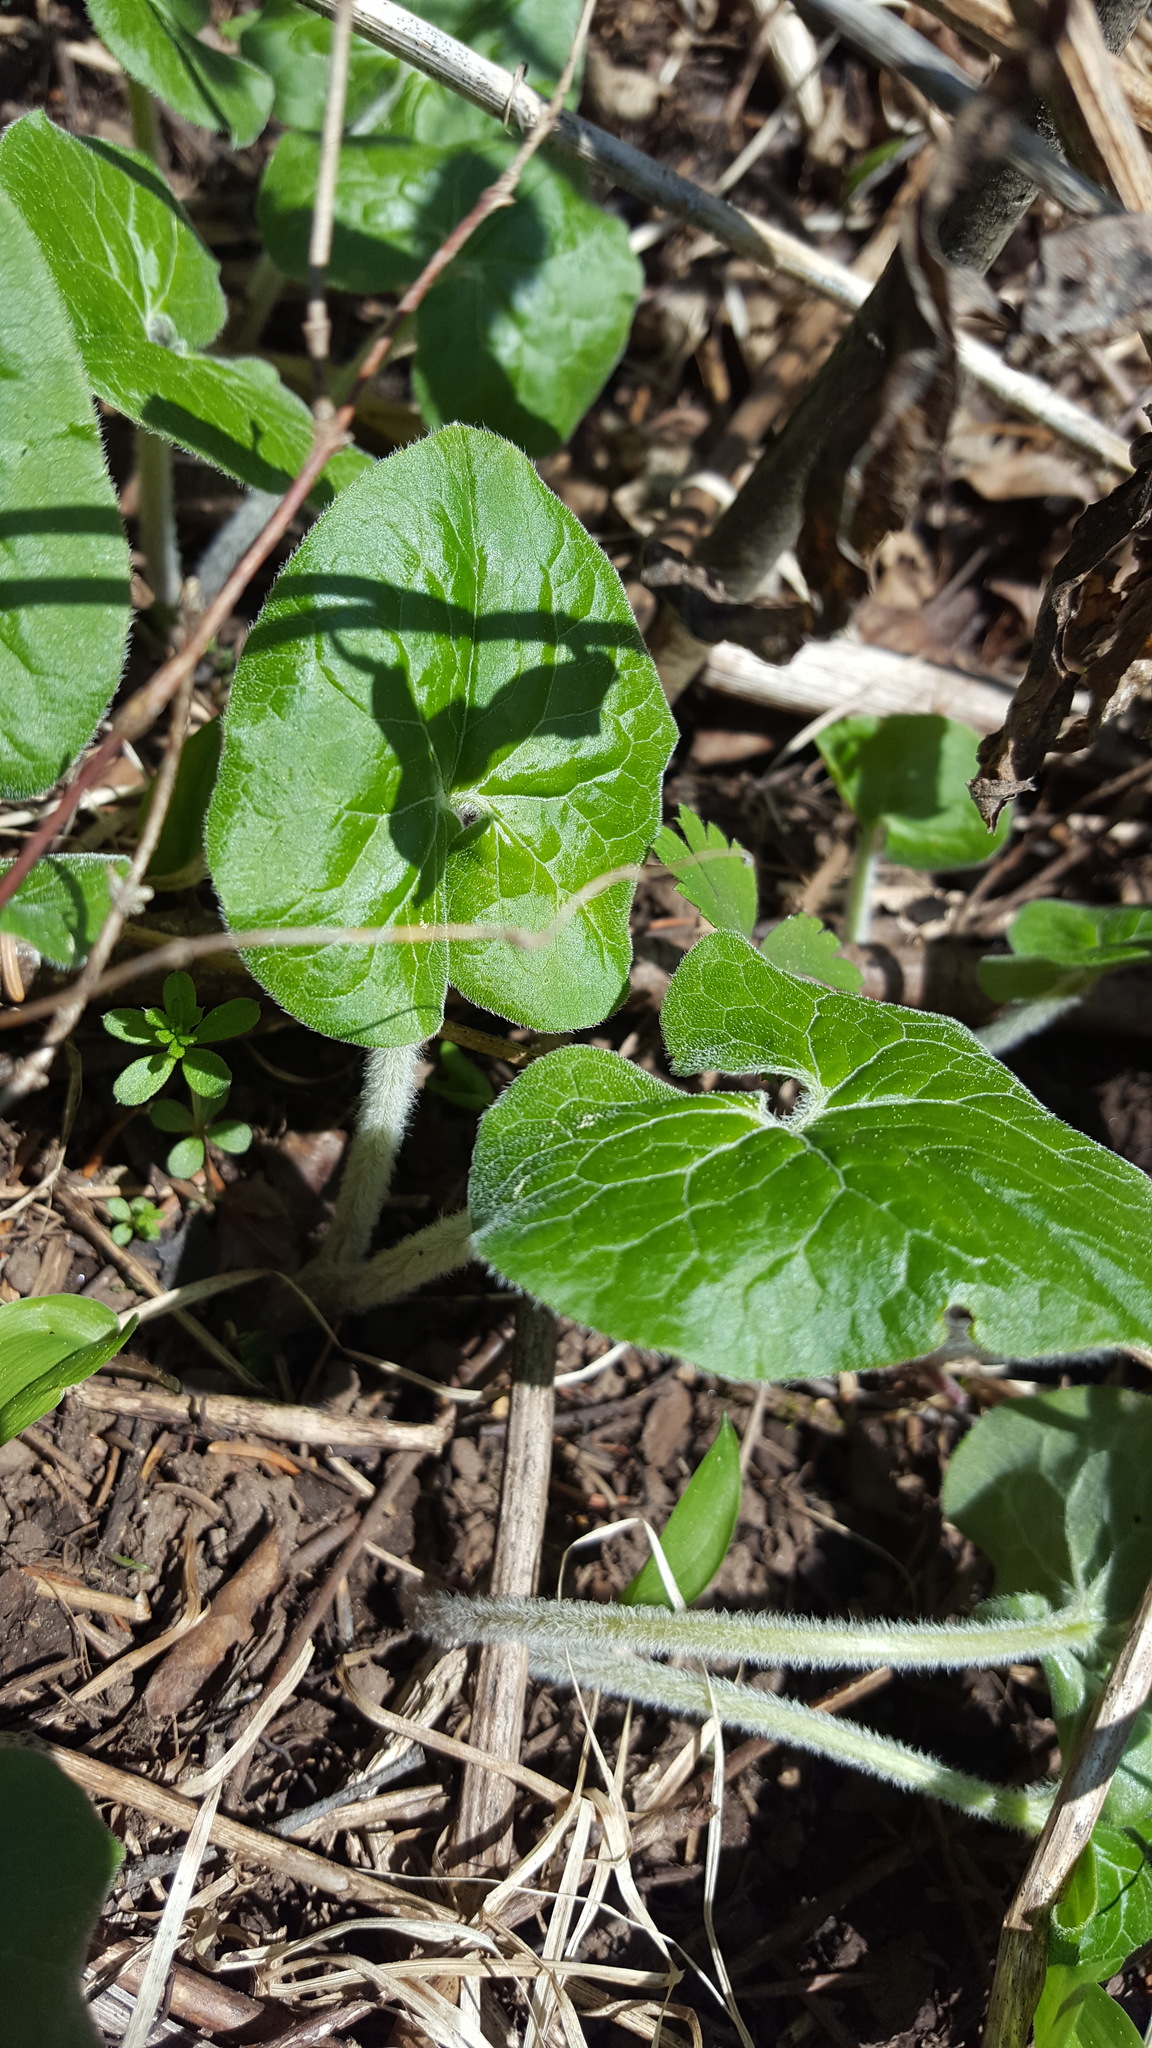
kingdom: Plantae
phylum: Tracheophyta
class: Magnoliopsida
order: Piperales
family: Aristolochiaceae
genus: Asarum
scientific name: Asarum canadense
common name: Wild ginger
